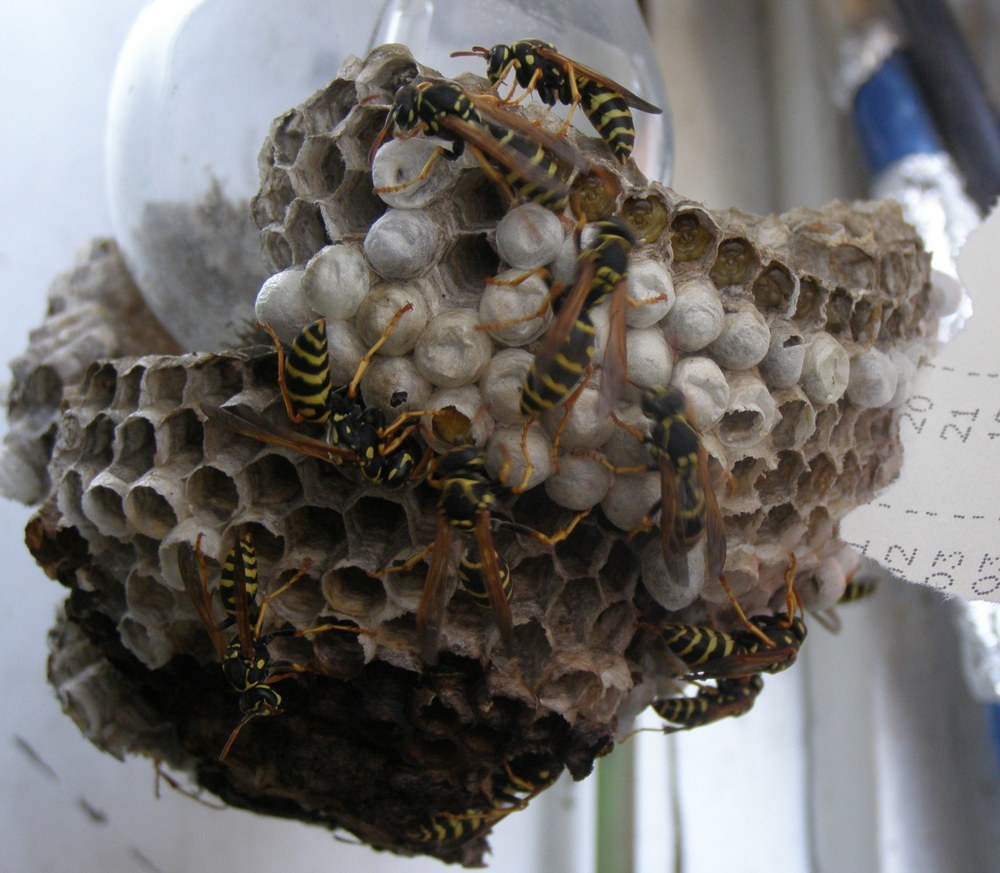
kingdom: Animalia
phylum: Arthropoda
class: Insecta
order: Hymenoptera
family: Eumenidae
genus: Polistes
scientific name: Polistes nimpha
